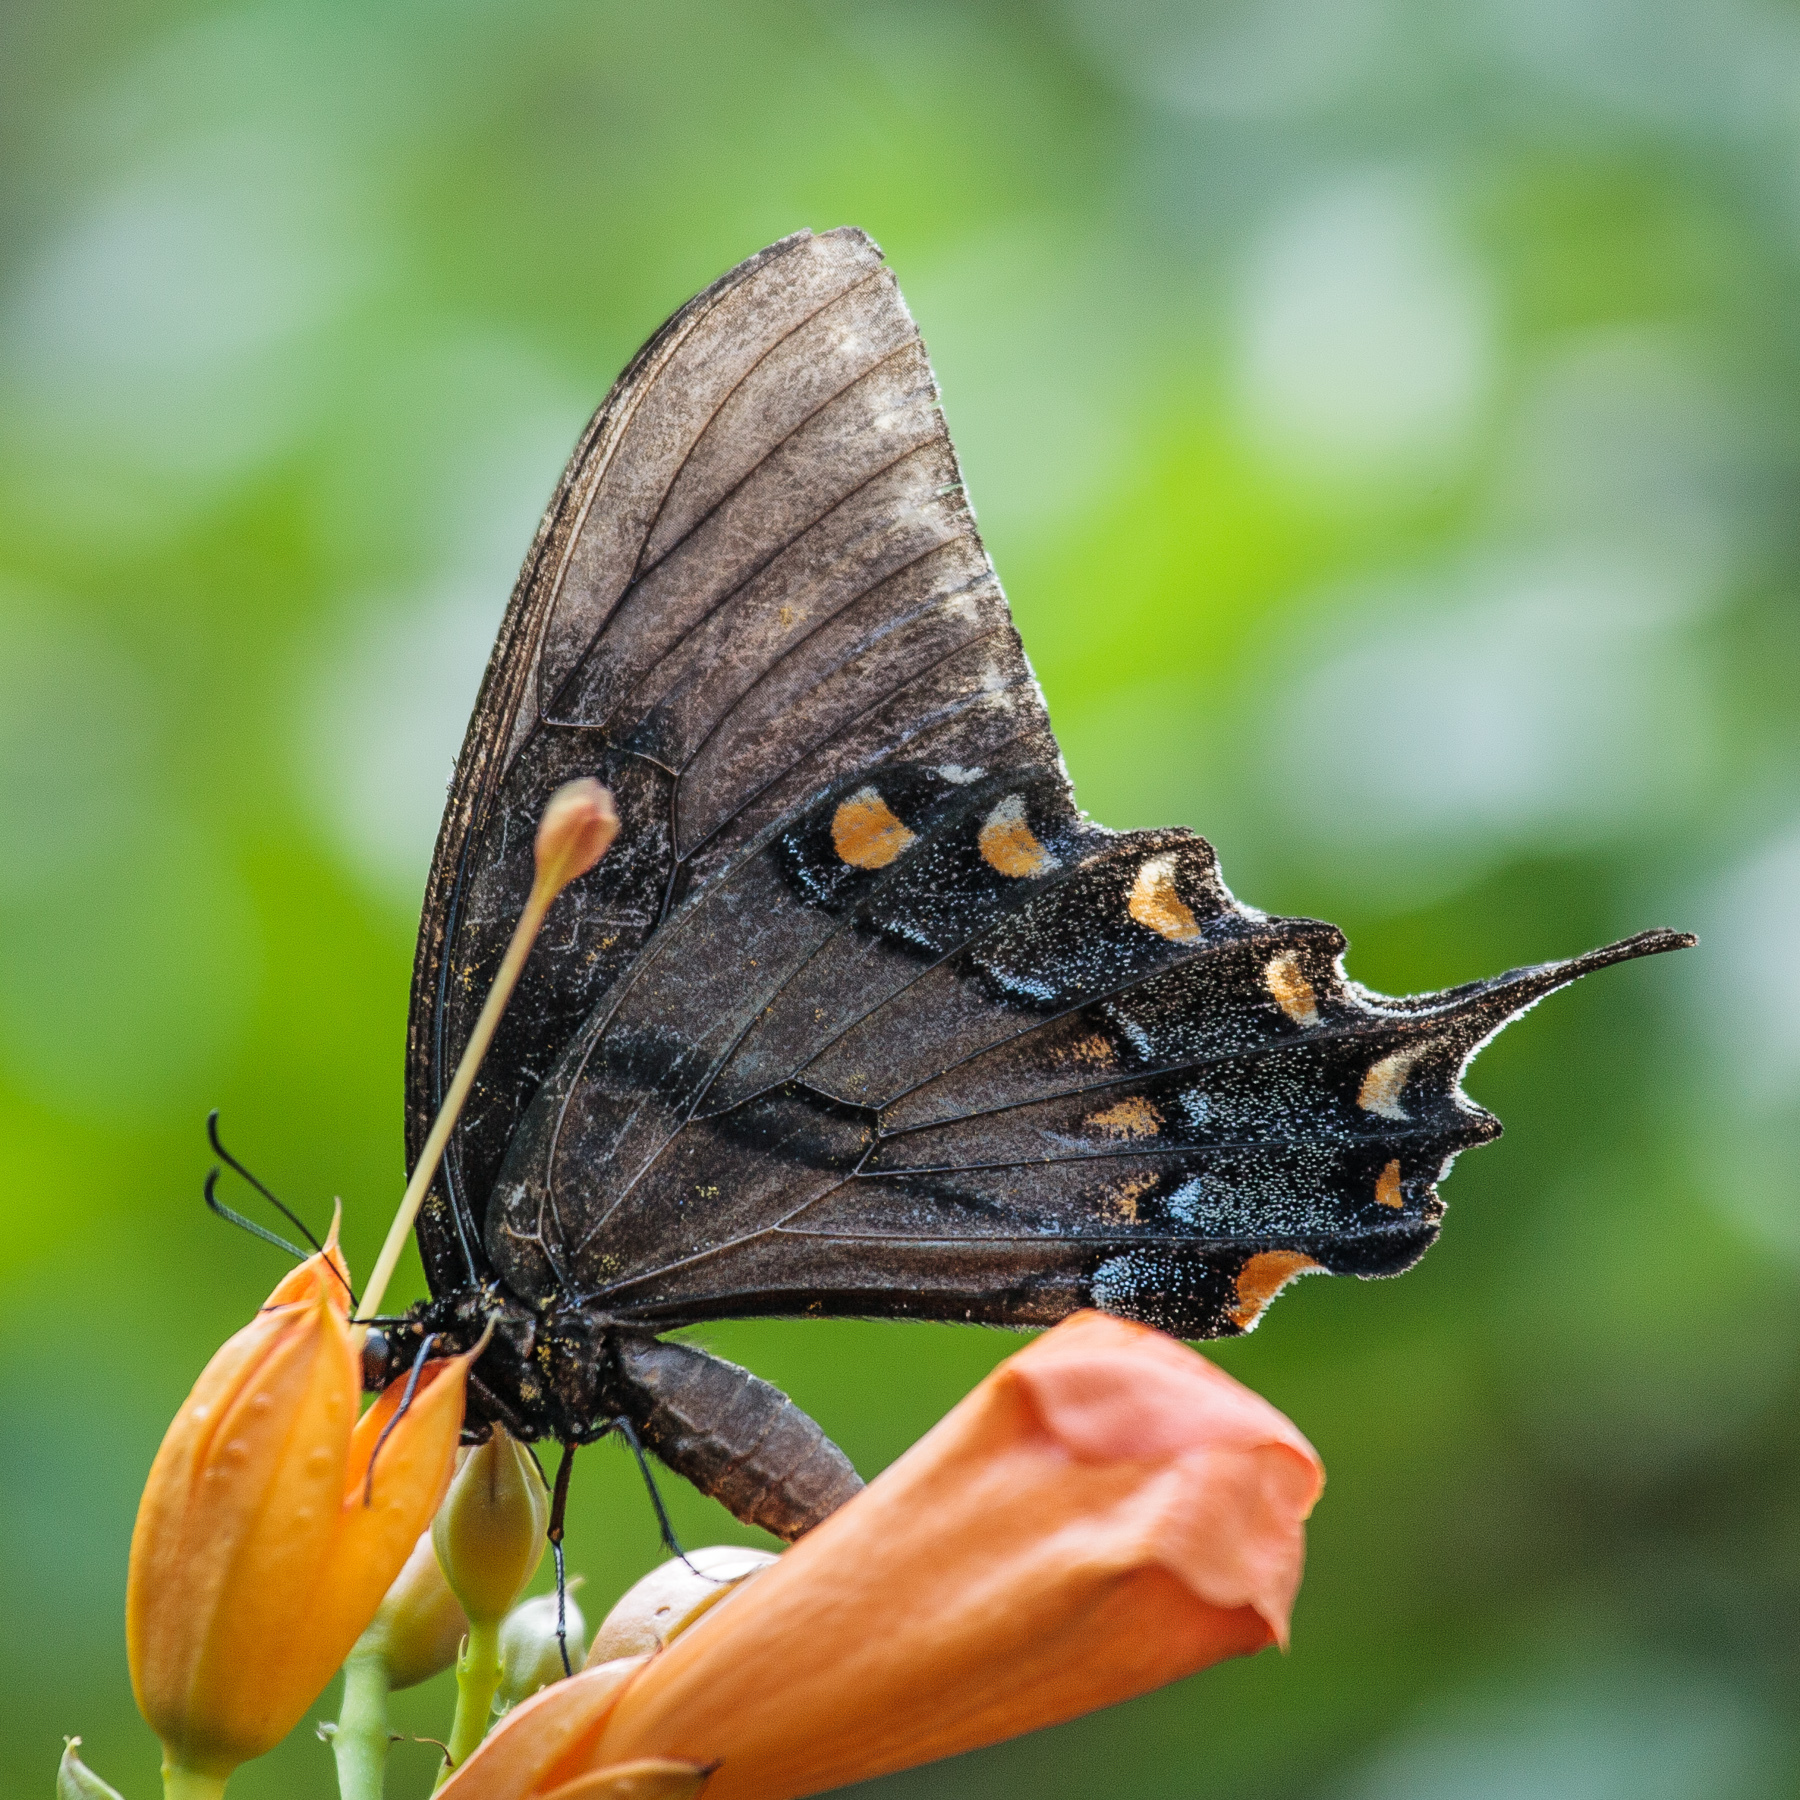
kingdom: Animalia
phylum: Arthropoda
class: Insecta
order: Lepidoptera
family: Papilionidae
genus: Papilio
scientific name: Papilio glaucus
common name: Tiger swallowtail
